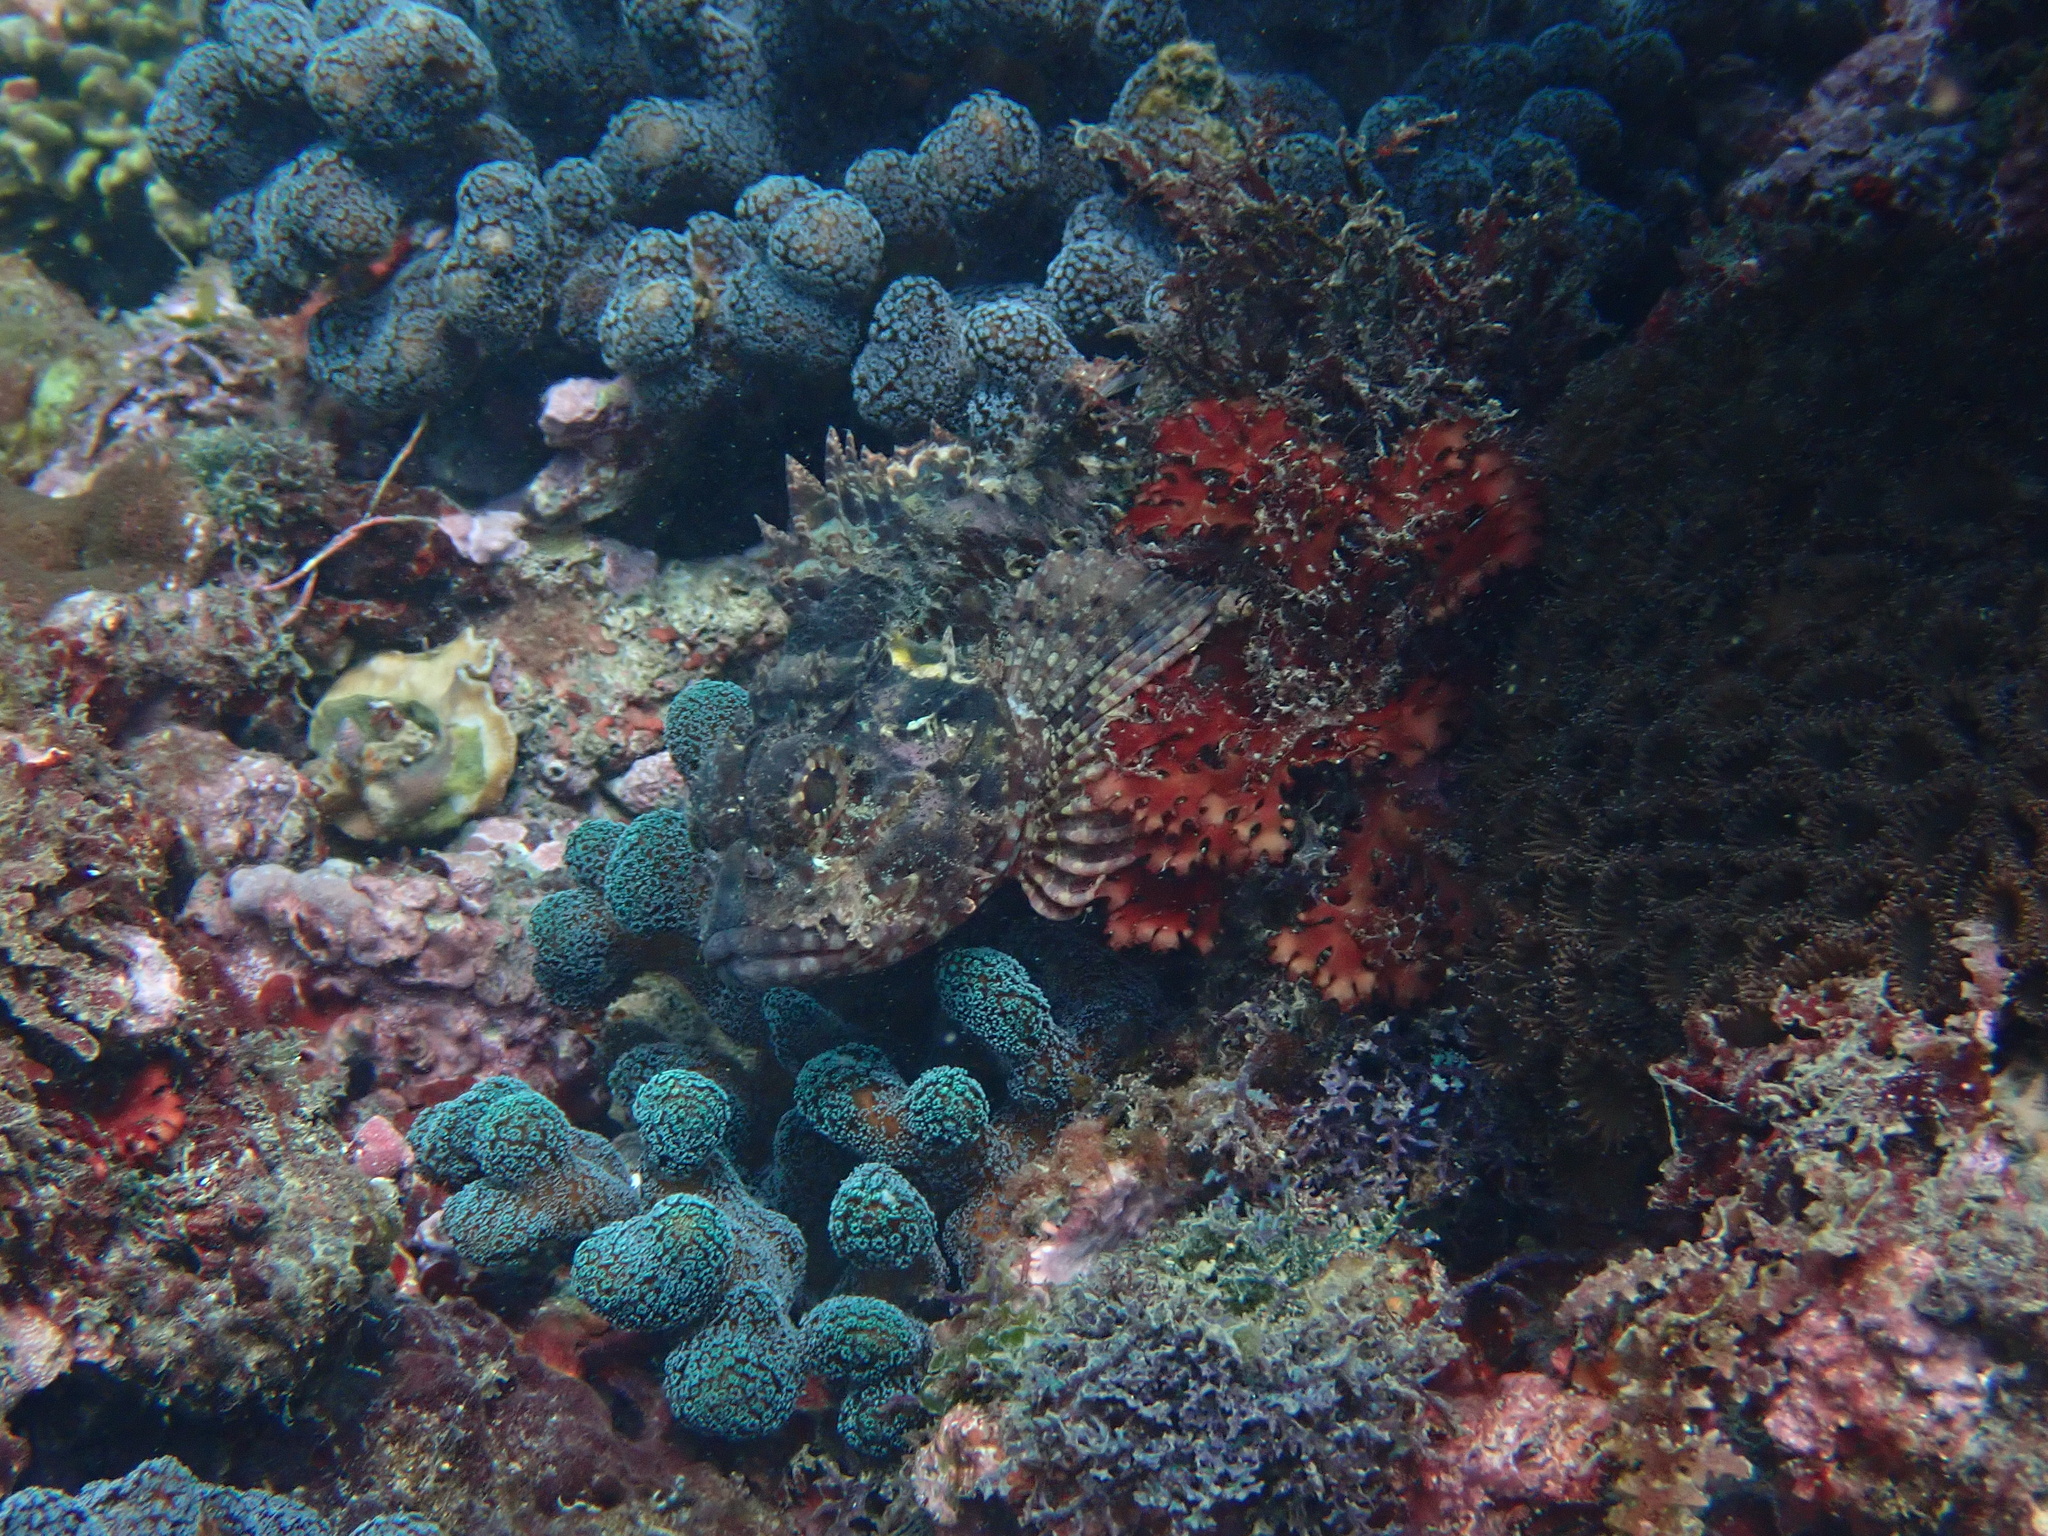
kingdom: Animalia
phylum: Chordata
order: Scorpaeniformes
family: Scorpaenidae
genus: Parascorpaena
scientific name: Parascorpaena aurita
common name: Byno scorpionfish
